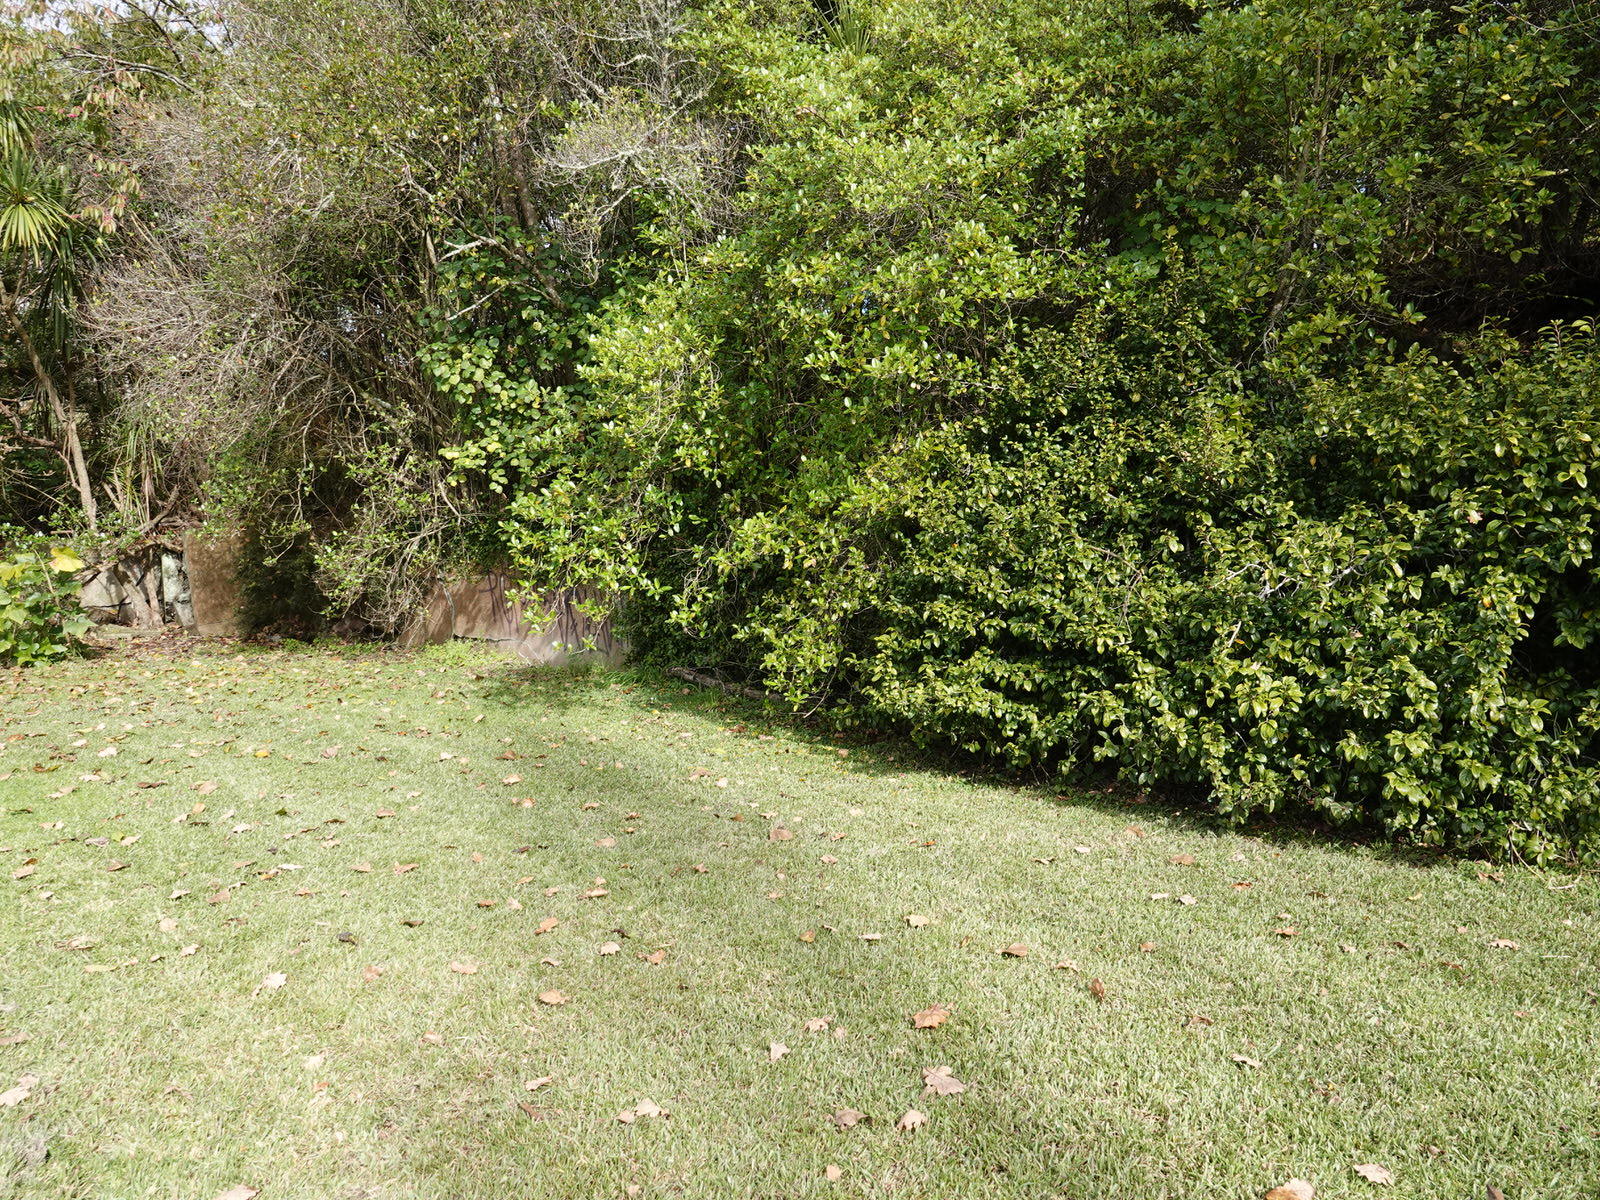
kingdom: Animalia
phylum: Arthropoda
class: Insecta
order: Lepidoptera
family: Nymphalidae
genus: Danaus
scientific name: Danaus plexippus
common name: Monarch
